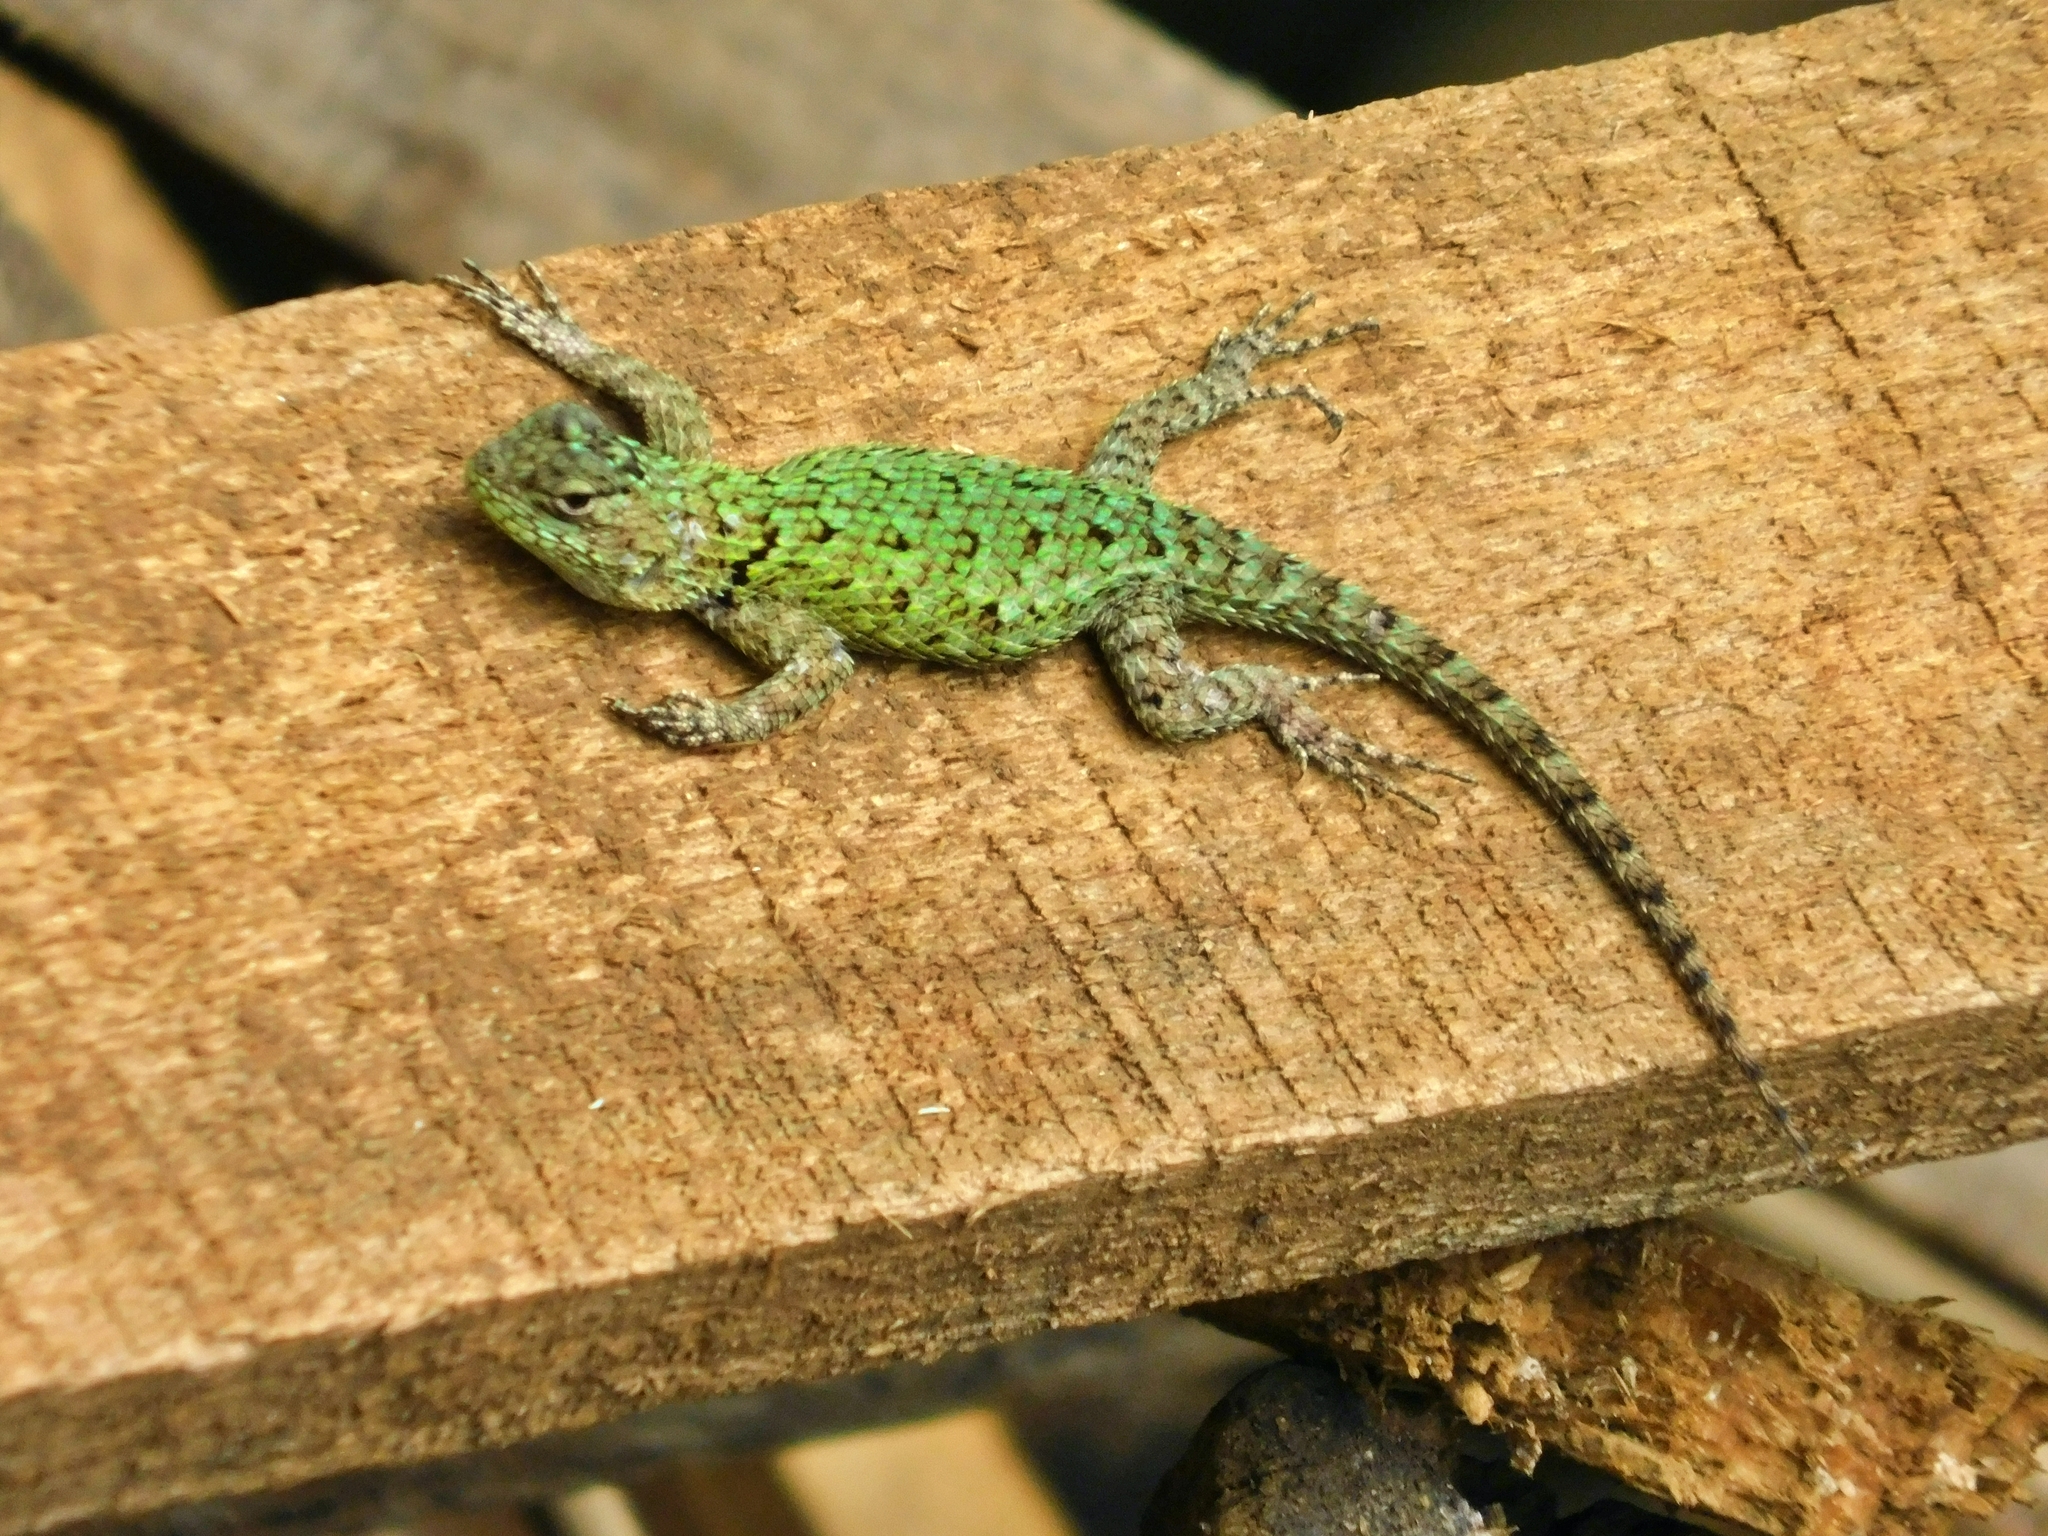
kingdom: Animalia
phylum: Chordata
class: Squamata
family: Phrynosomatidae
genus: Sceloporus
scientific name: Sceloporus malachiticus
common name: Green spiny lizard
